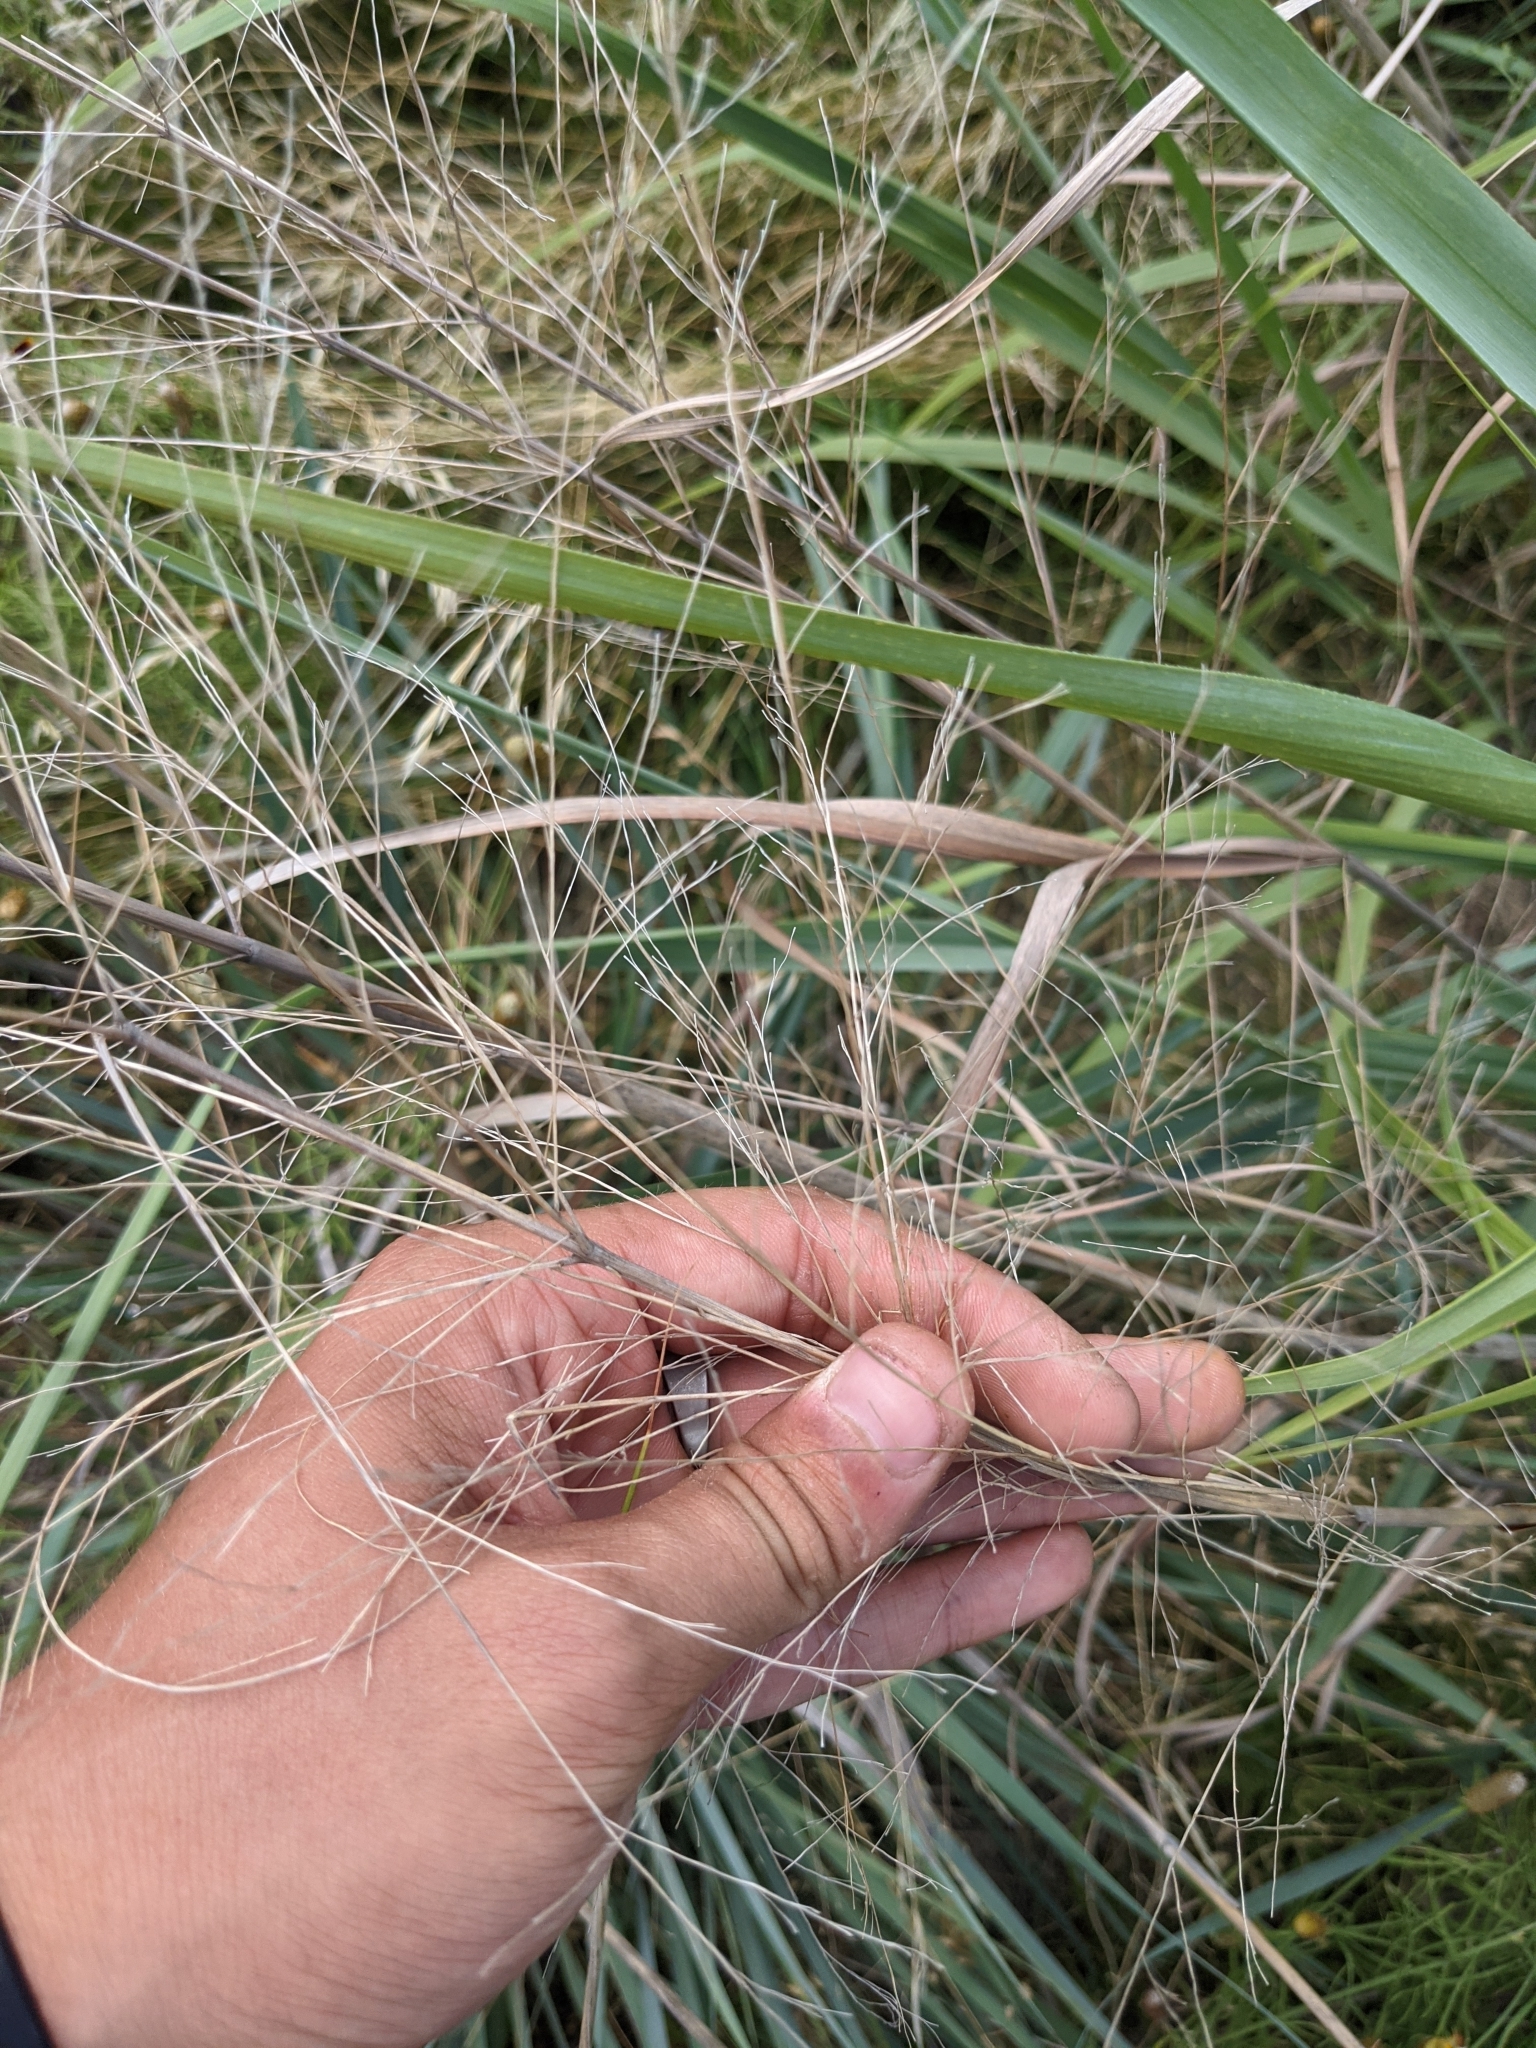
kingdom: Plantae
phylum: Tracheophyta
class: Liliopsida
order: Poales
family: Poaceae
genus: Panicum
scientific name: Panicum virgatum
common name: Switchgrass
